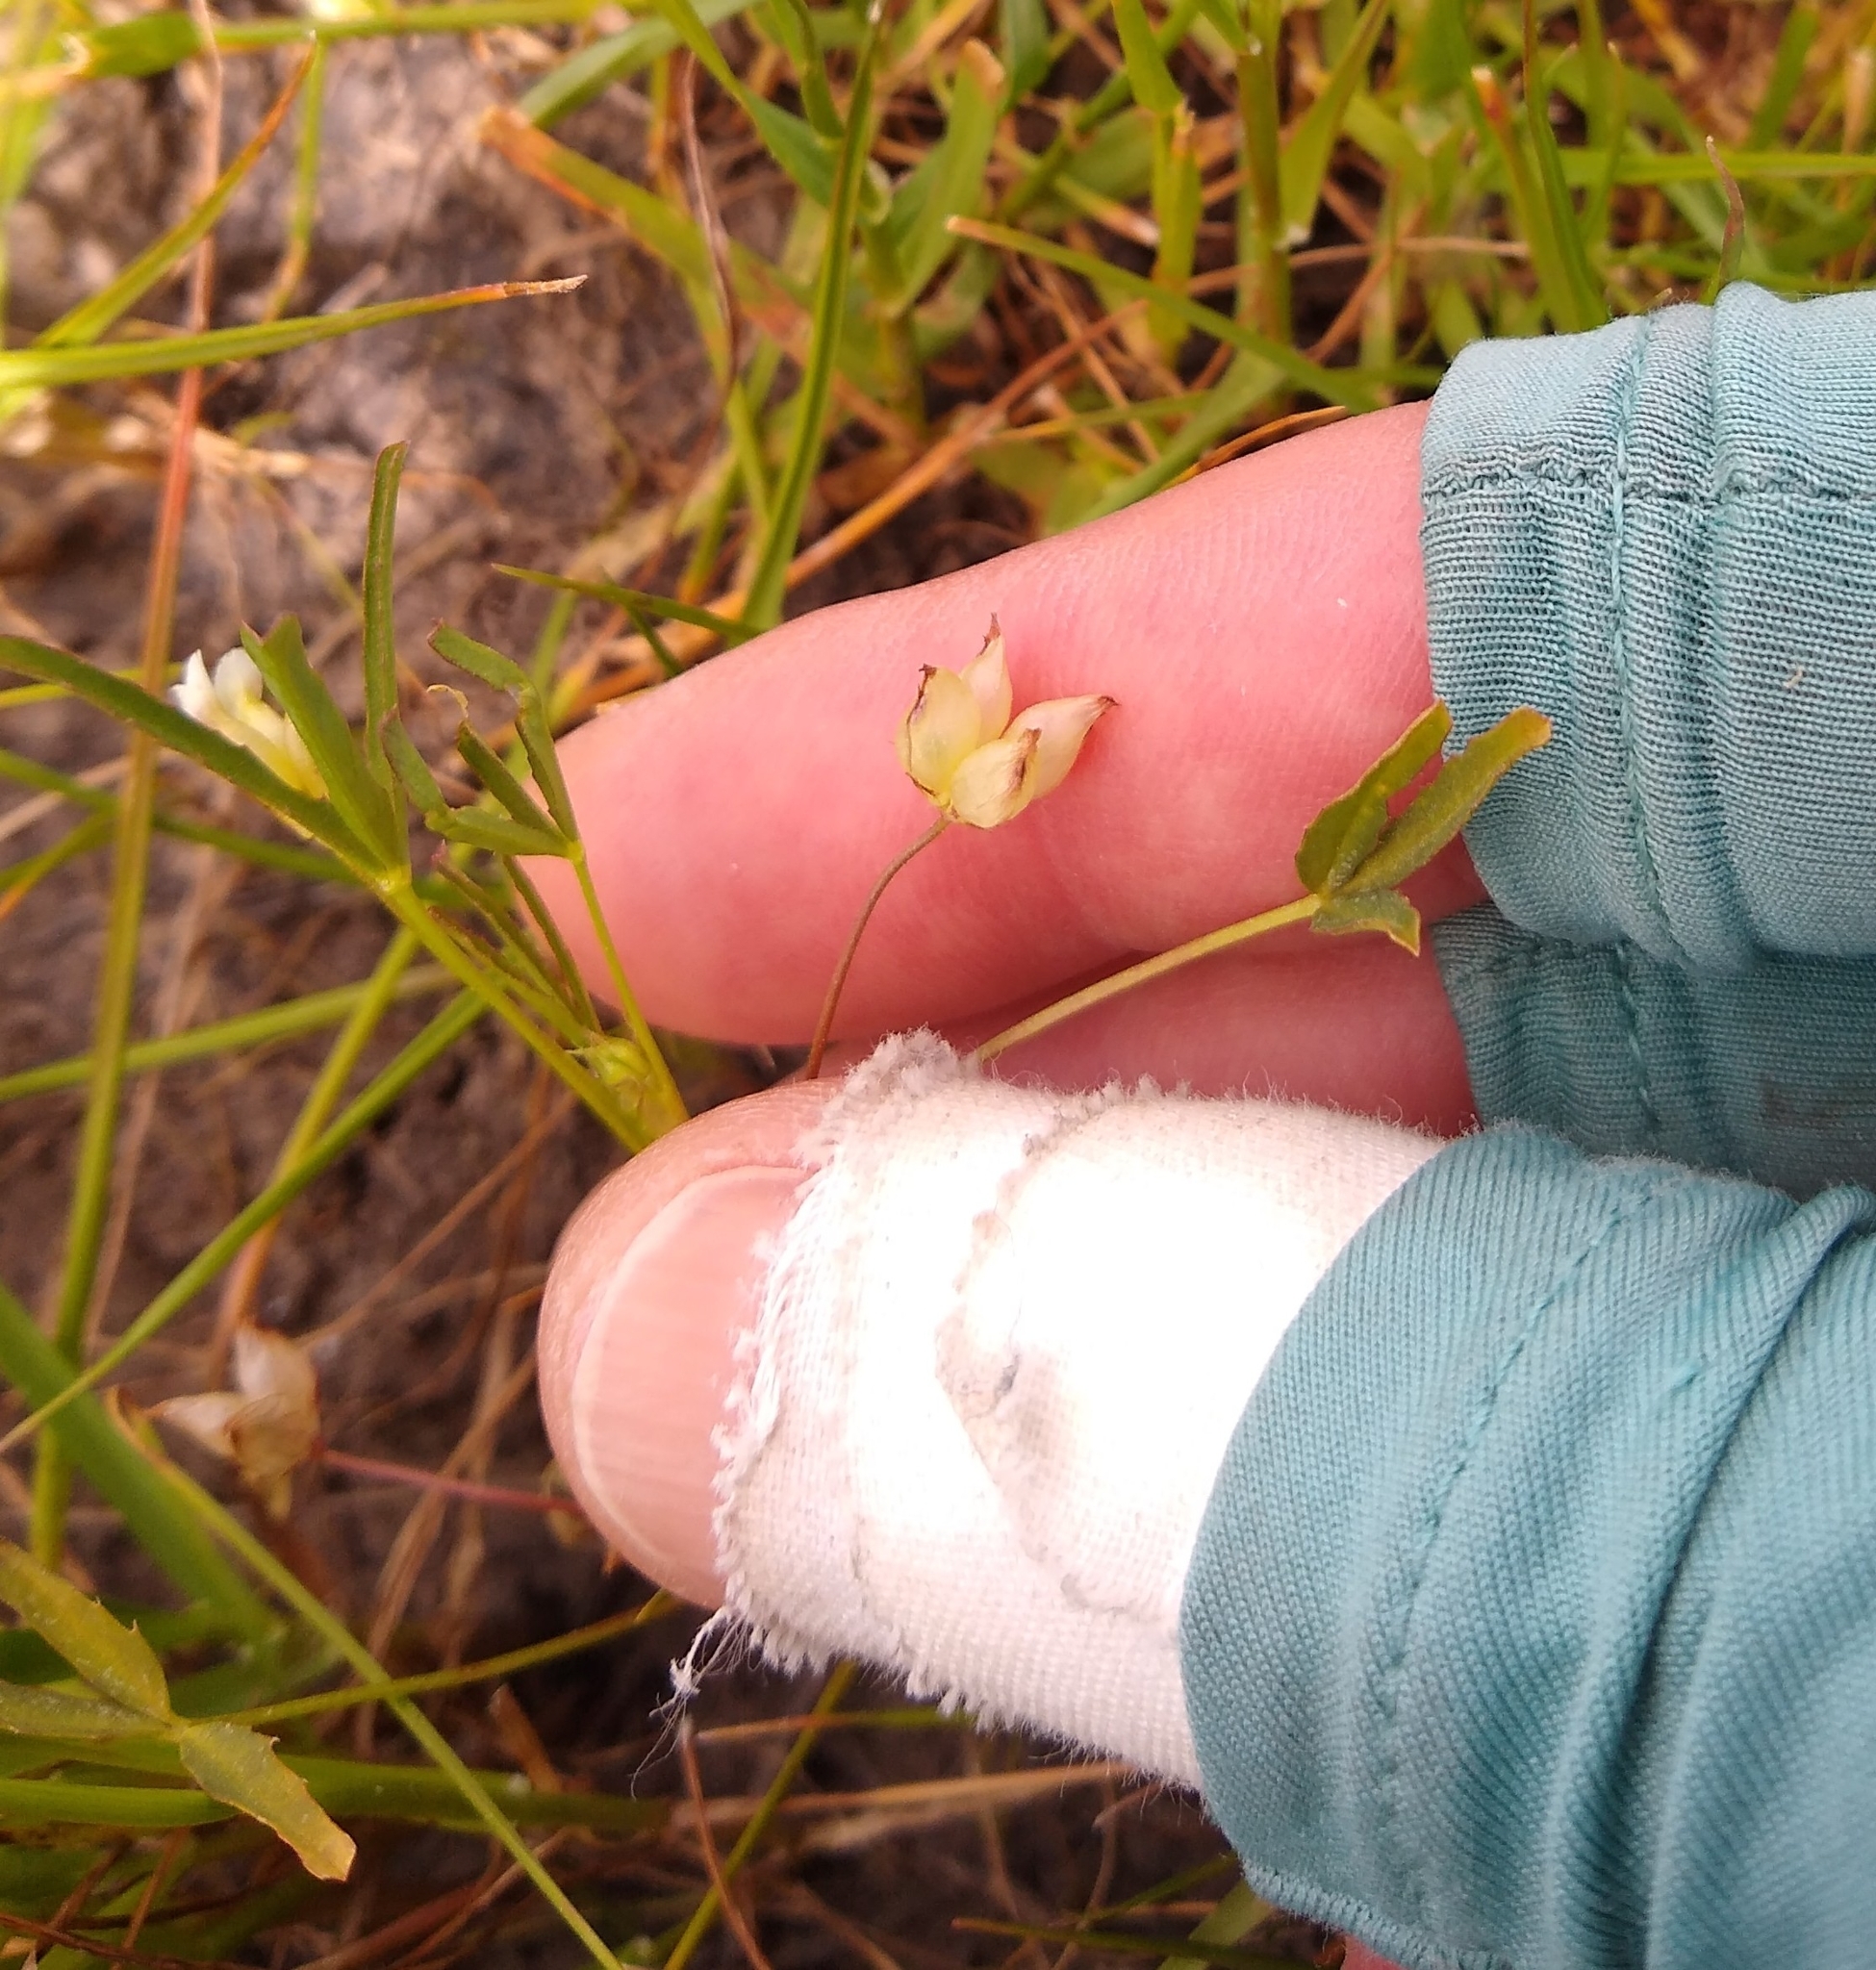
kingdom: Plantae
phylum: Tracheophyta
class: Magnoliopsida
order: Fabales
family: Fabaceae
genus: Trifolium
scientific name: Trifolium depauperatum
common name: Poverty clover
